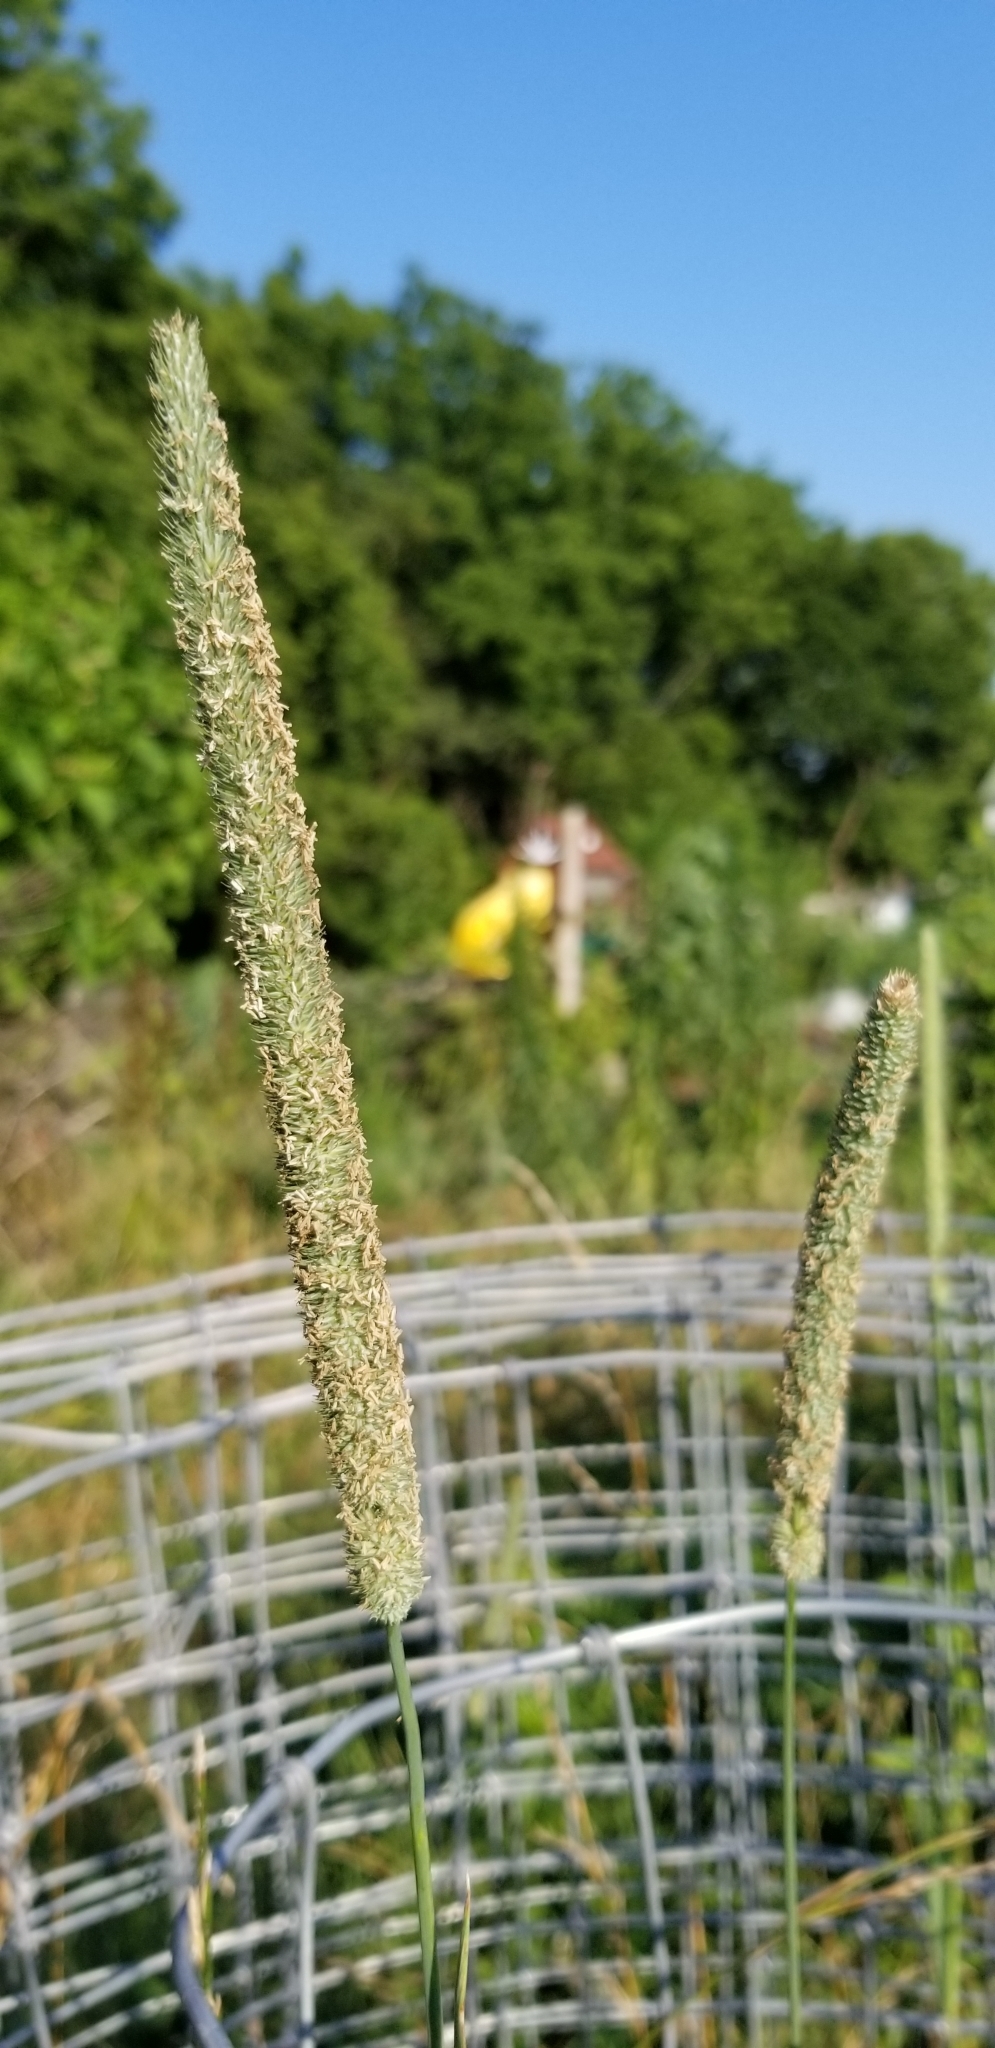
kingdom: Plantae
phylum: Tracheophyta
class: Liliopsida
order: Poales
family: Poaceae
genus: Phleum
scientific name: Phleum pratense
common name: Timothy grass
